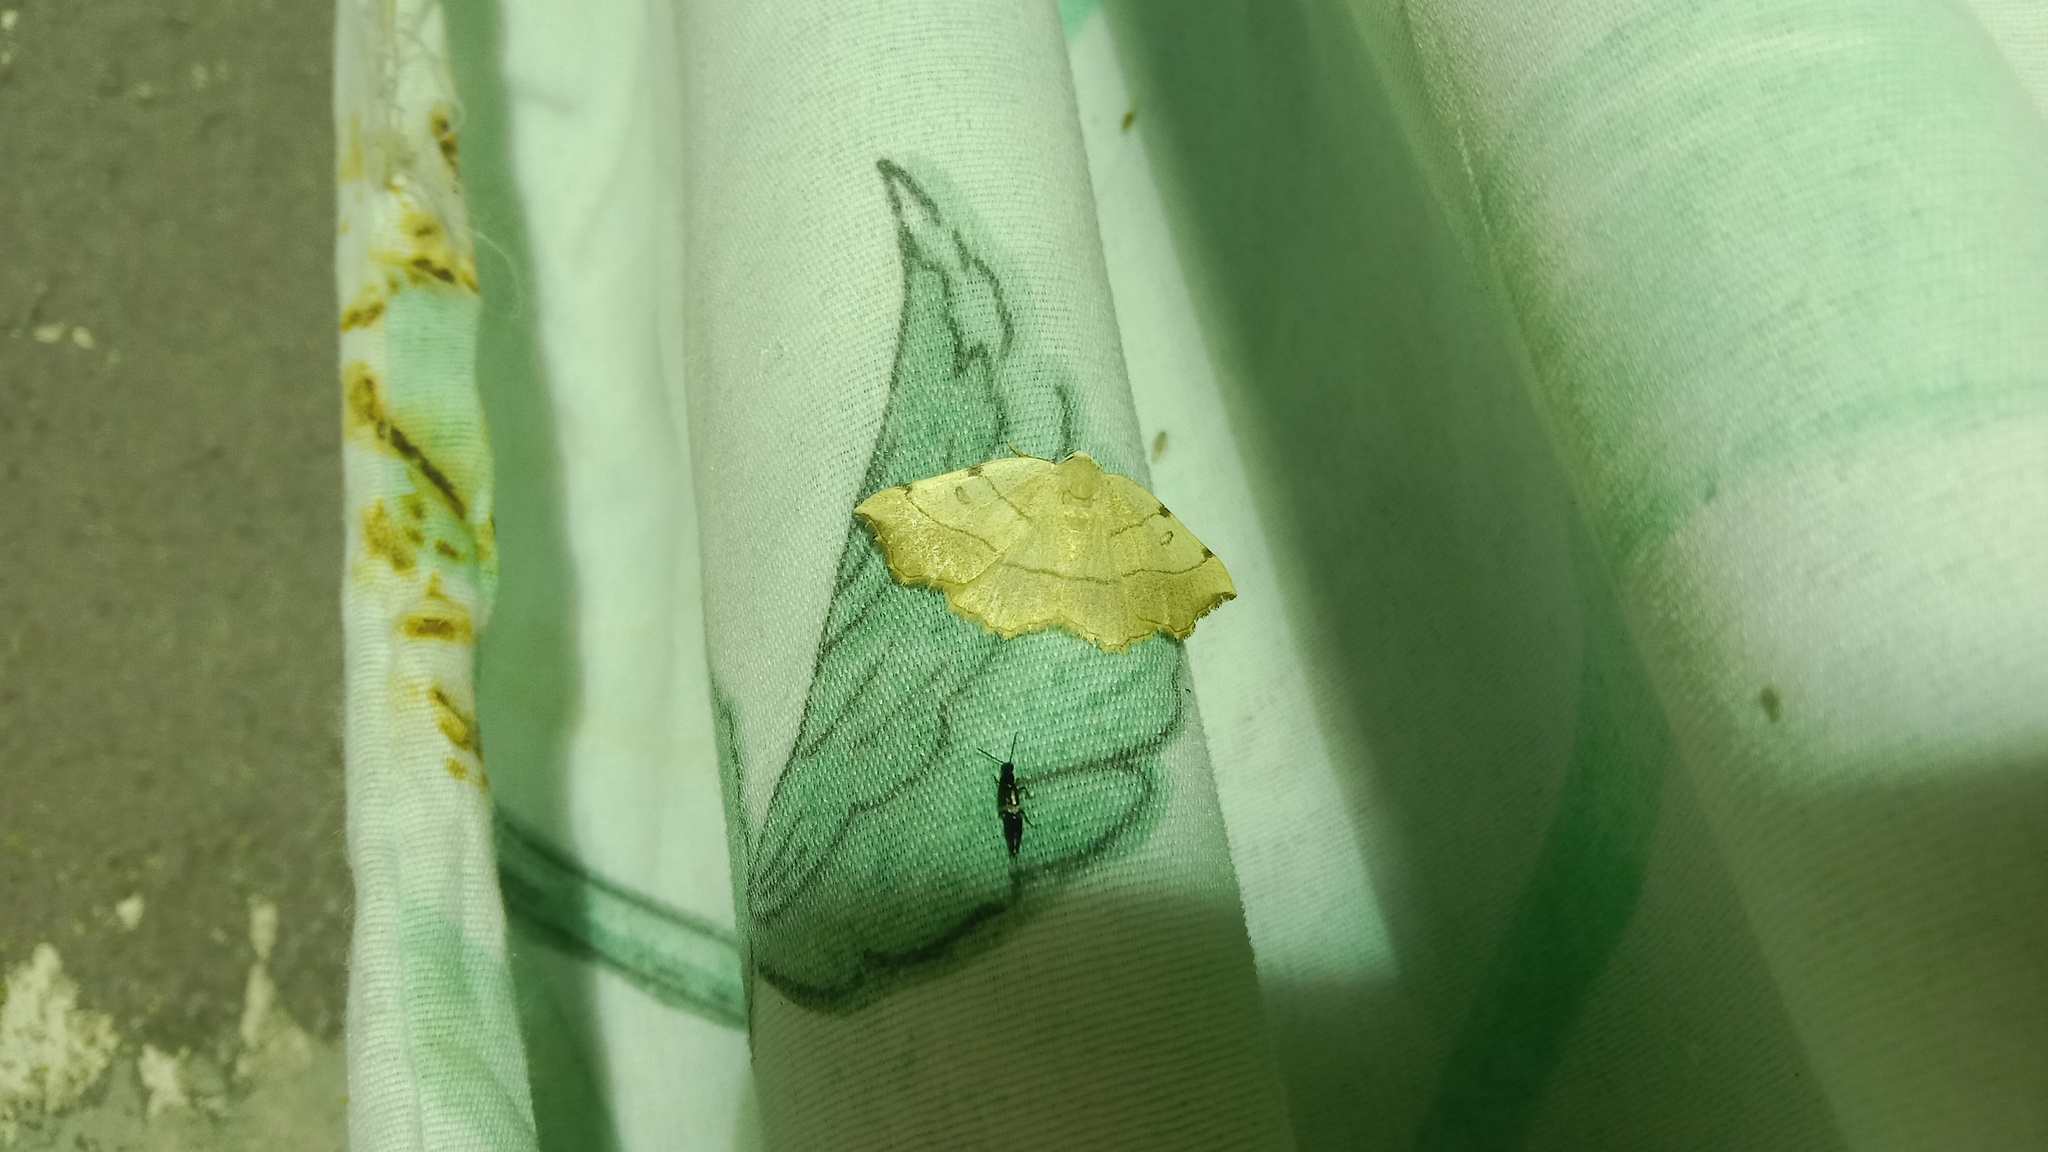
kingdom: Animalia
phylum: Arthropoda
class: Insecta
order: Lepidoptera
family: Geometridae
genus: Eilicrinia
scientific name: Eilicrinia trinotata
